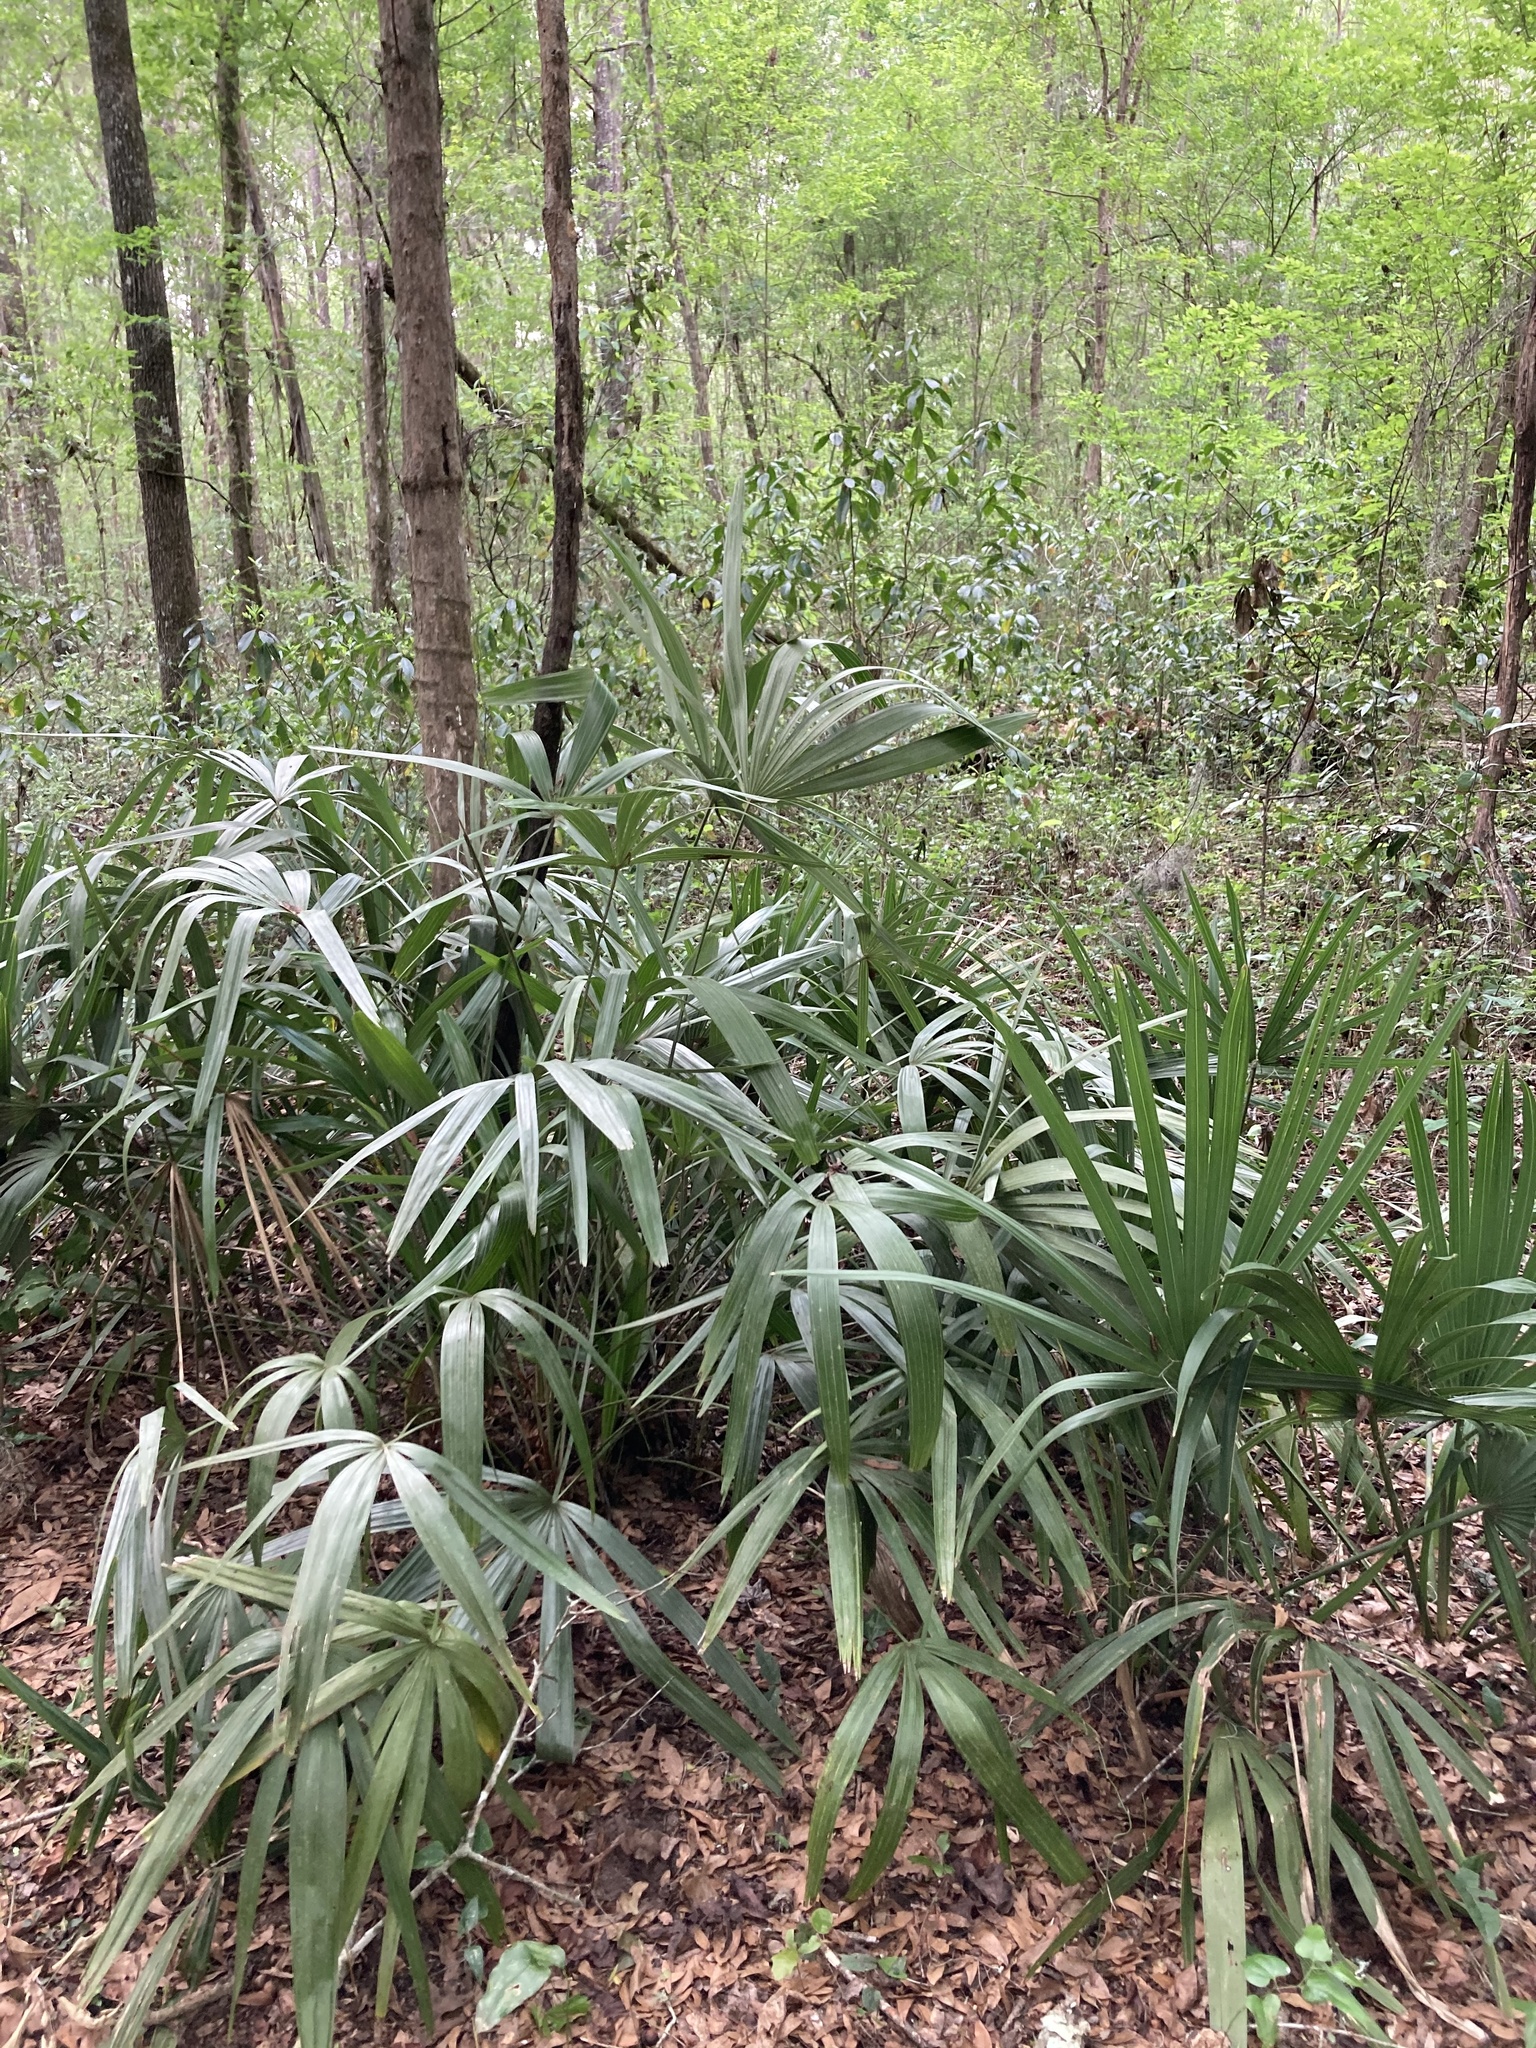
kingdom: Plantae
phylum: Tracheophyta
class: Liliopsida
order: Arecales
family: Arecaceae
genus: Rhapidophyllum
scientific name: Rhapidophyllum hystrix
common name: Porcupine palm
